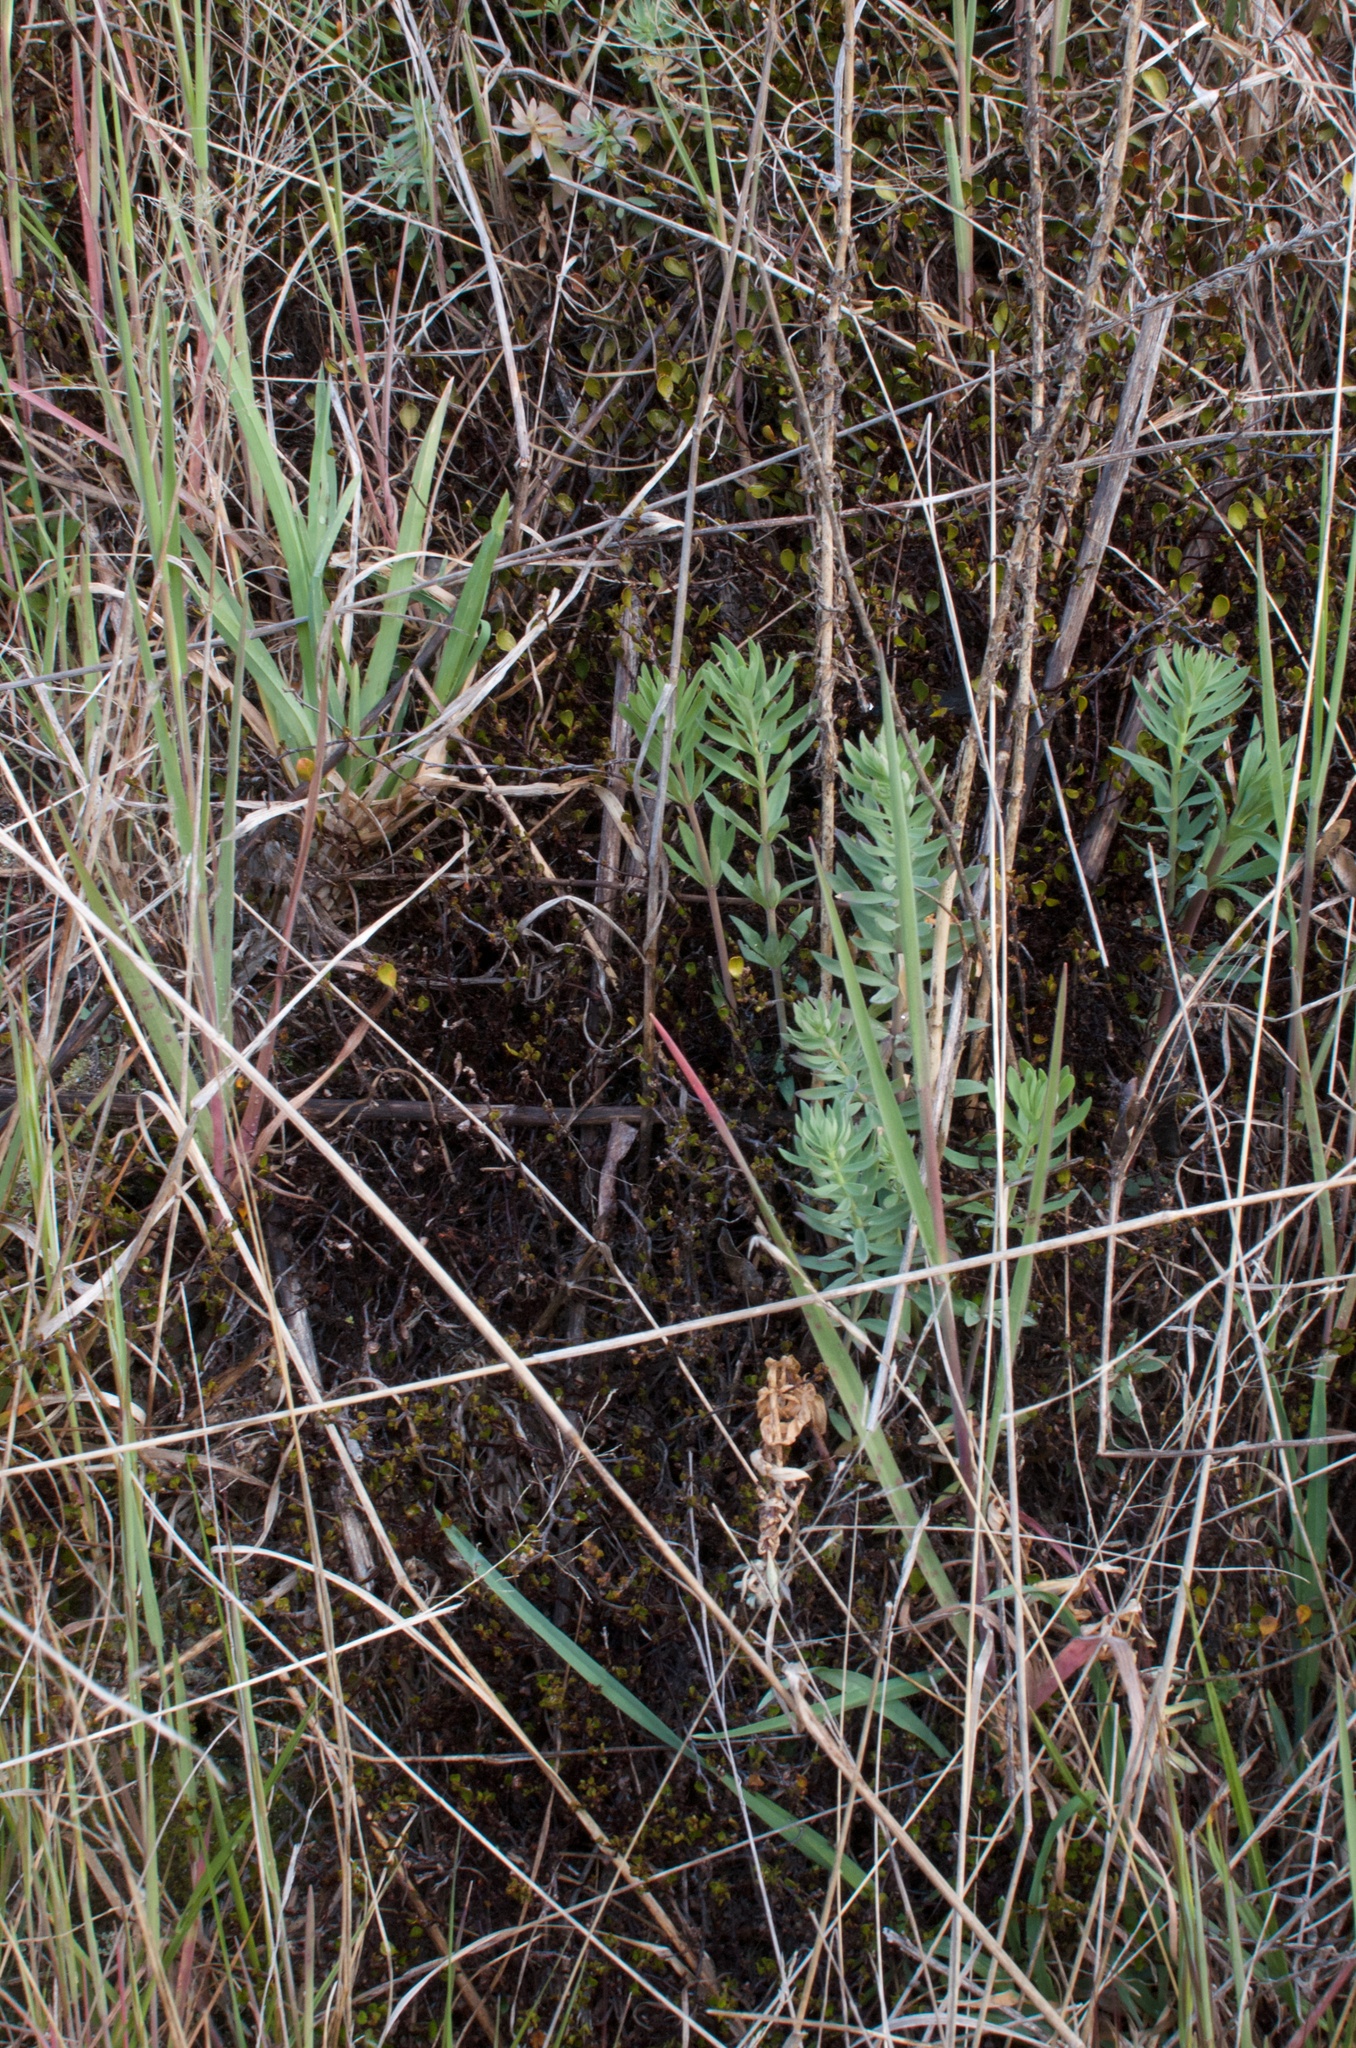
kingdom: Plantae
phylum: Tracheophyta
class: Magnoliopsida
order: Caryophyllales
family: Polygonaceae
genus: Muehlenbeckia
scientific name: Muehlenbeckia axillaris
